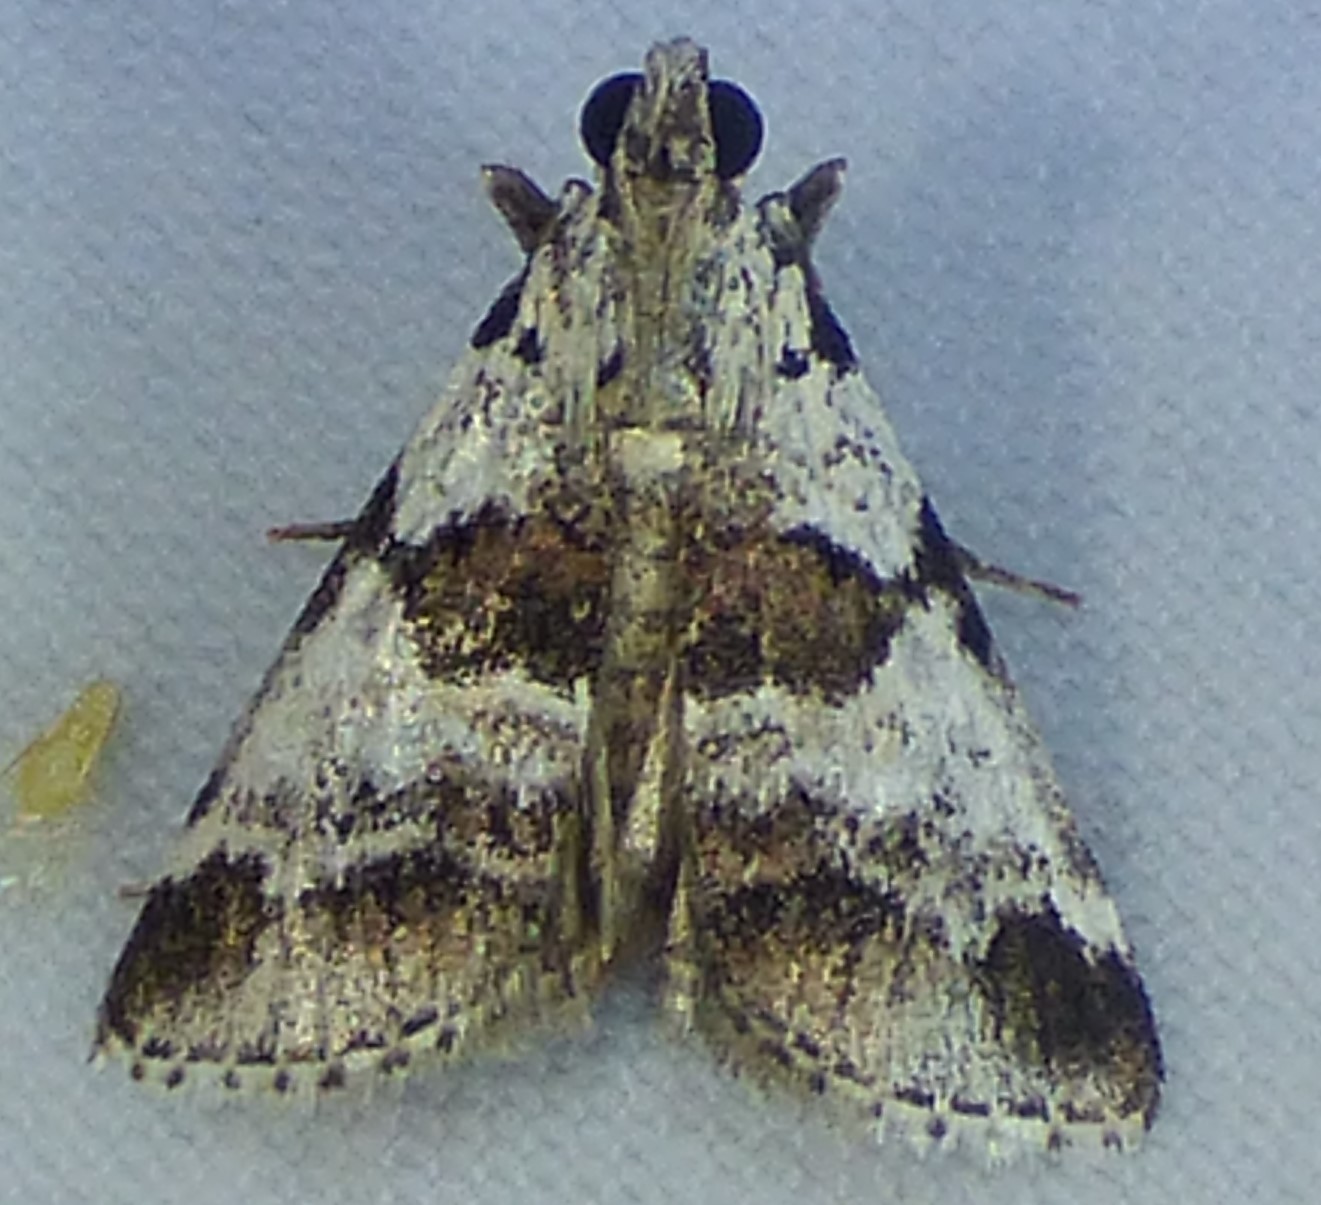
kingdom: Animalia
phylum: Arthropoda
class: Insecta
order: Lepidoptera
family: Pyralidae
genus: Tallula
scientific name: Tallula atrifascialis
